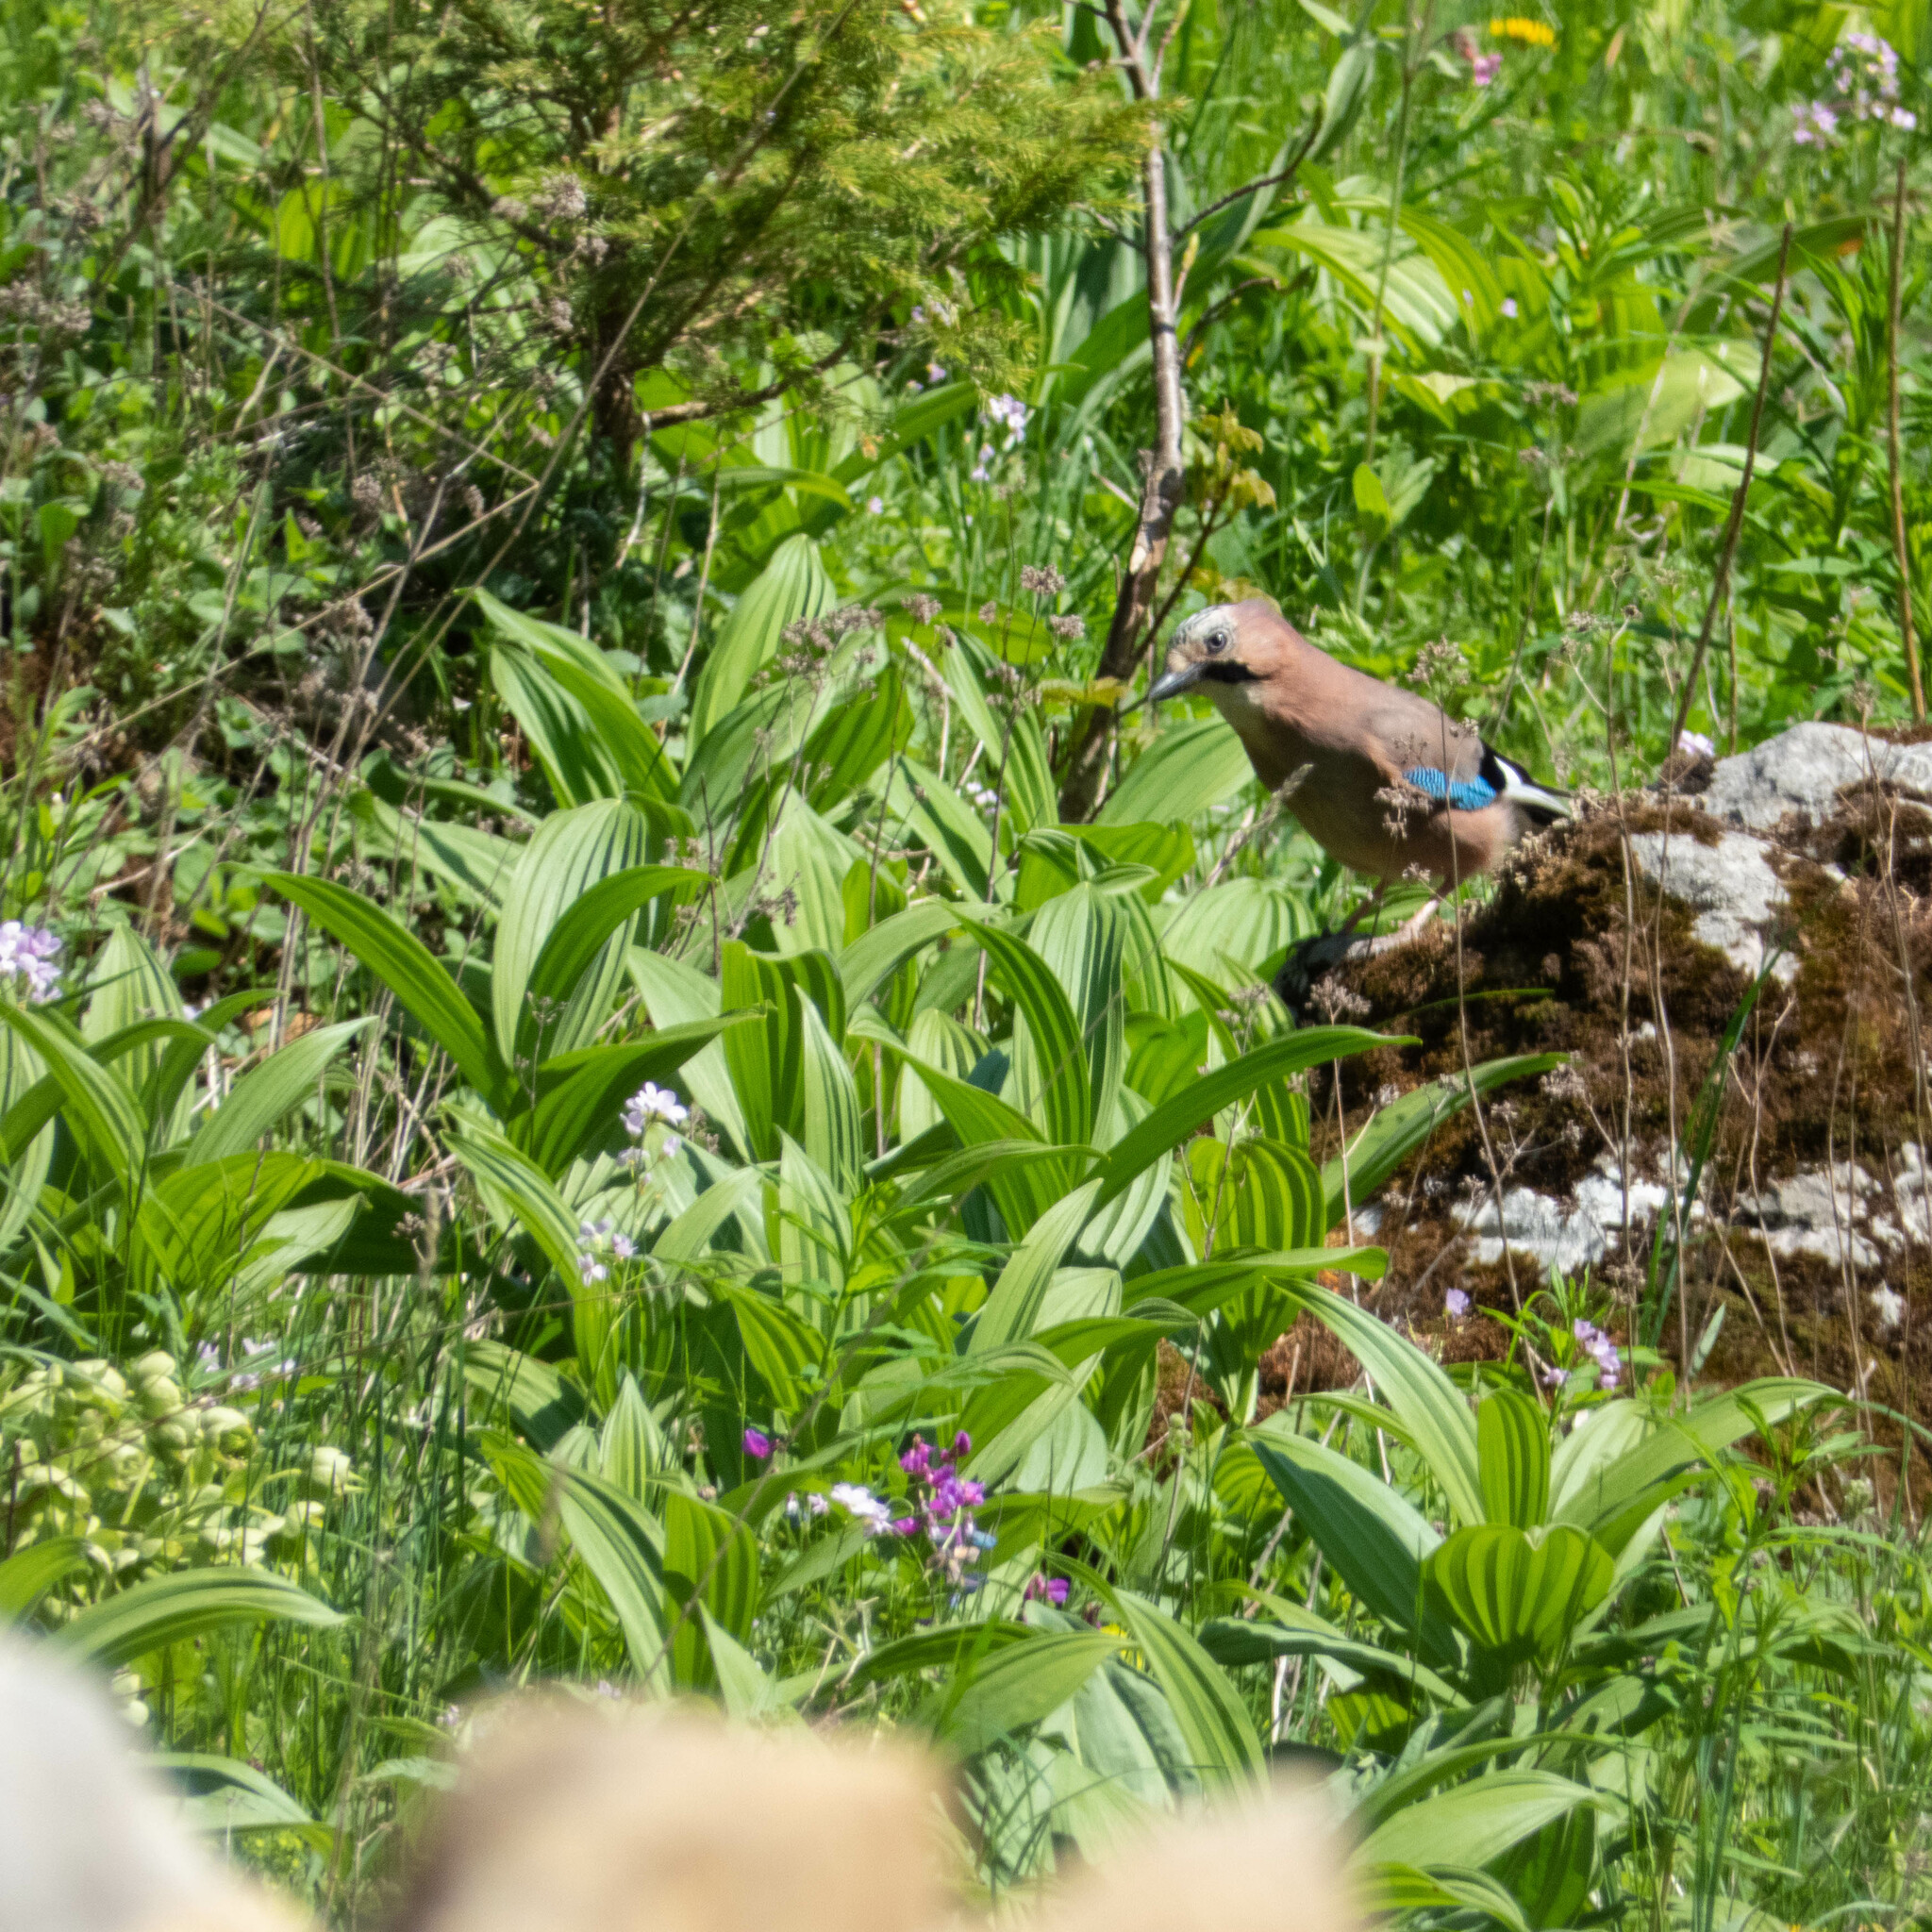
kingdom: Animalia
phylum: Chordata
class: Aves
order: Passeriformes
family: Corvidae
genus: Garrulus
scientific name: Garrulus glandarius
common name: Eurasian jay
